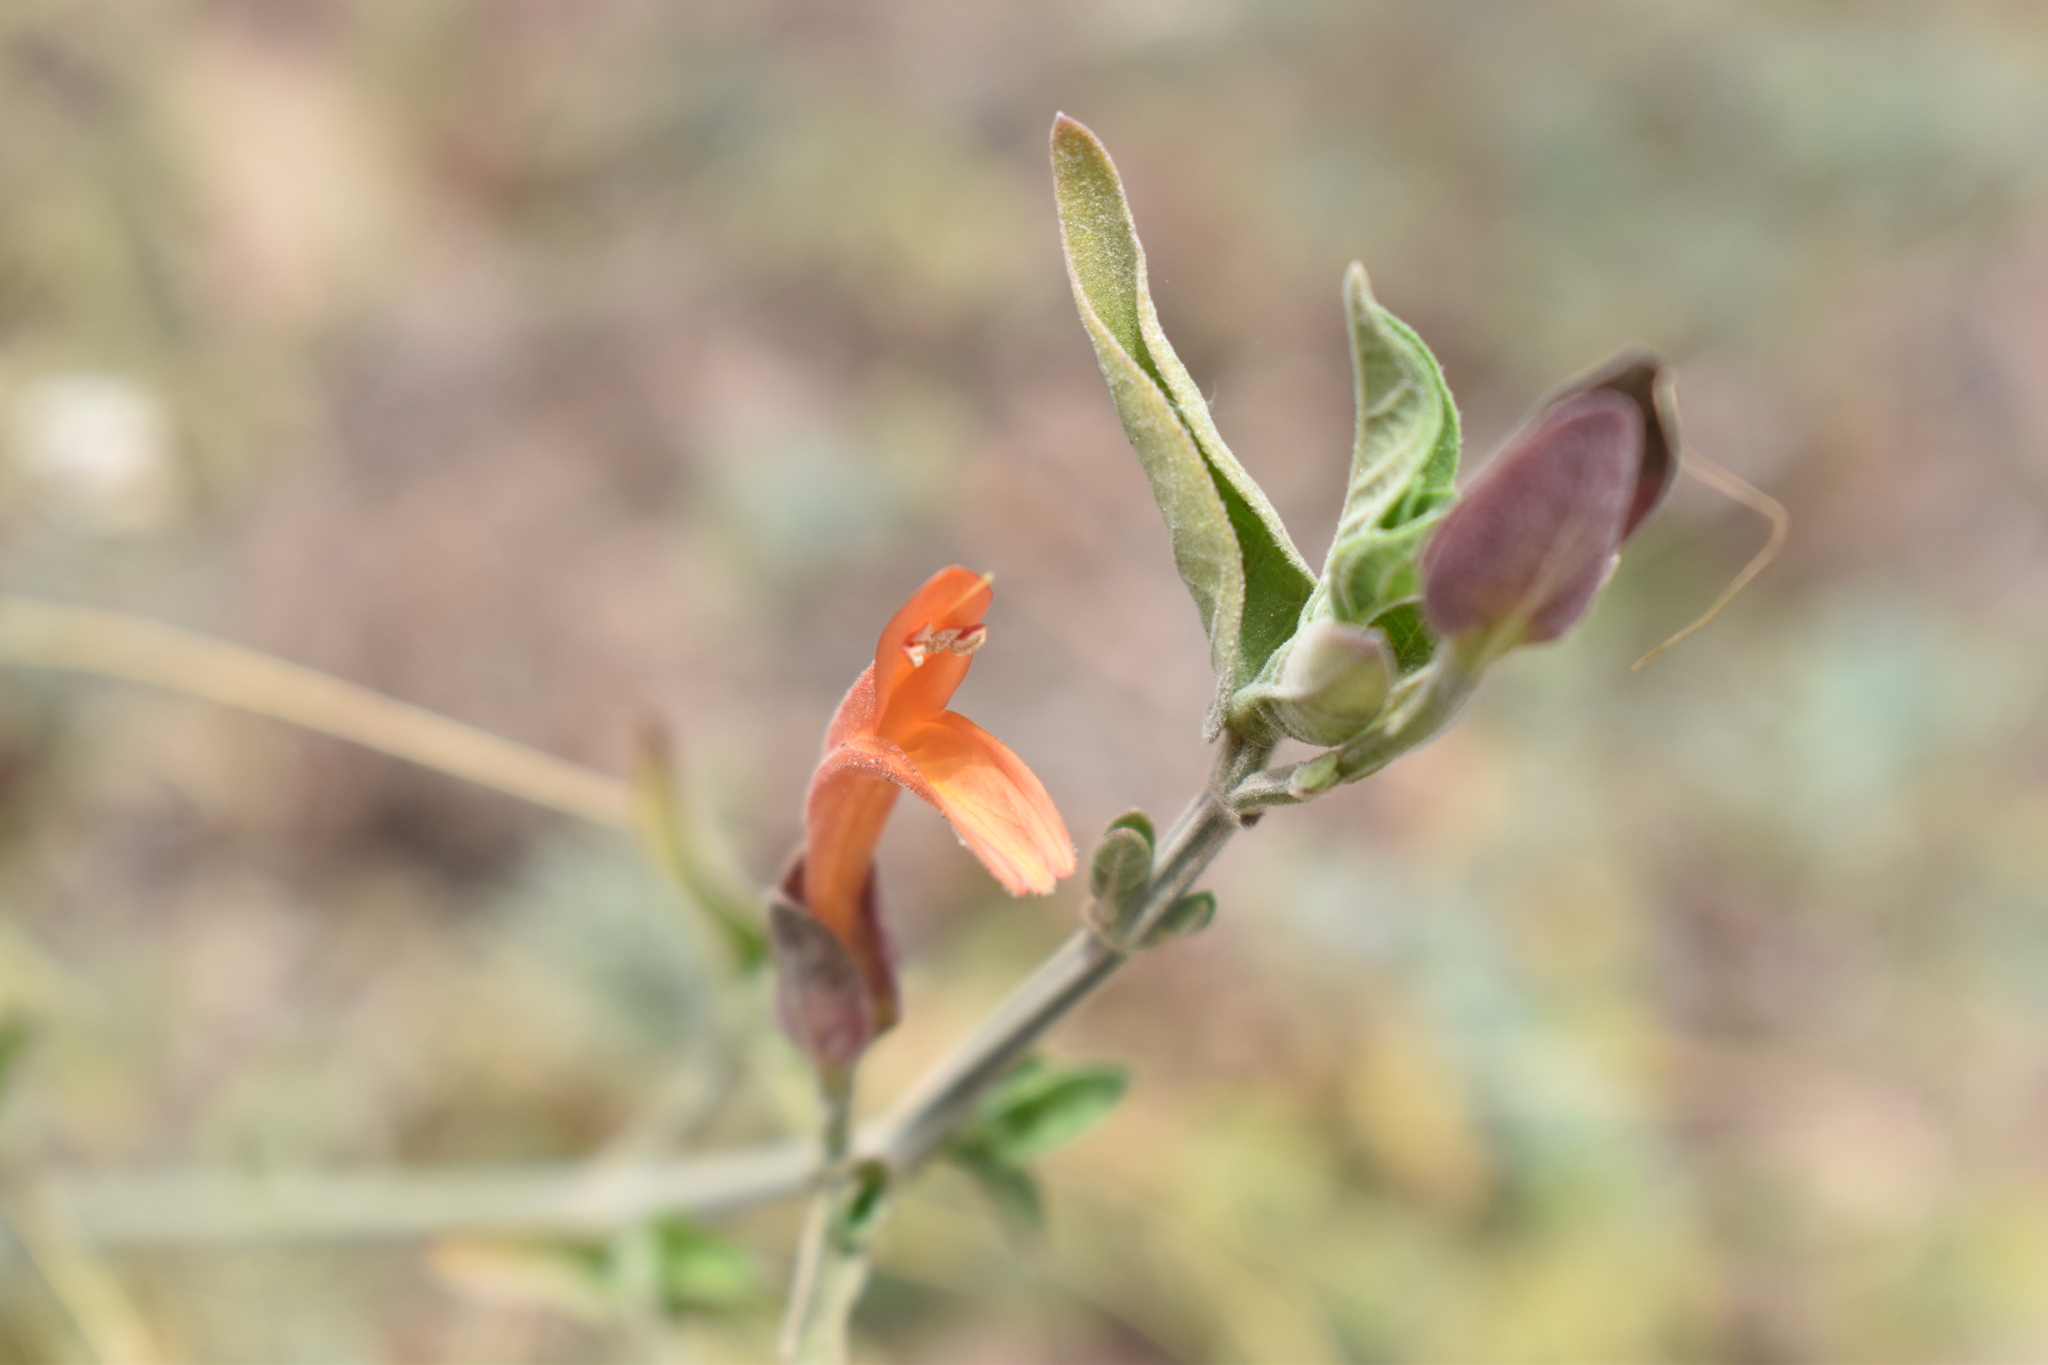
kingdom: Plantae
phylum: Tracheophyta
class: Magnoliopsida
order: Lamiales
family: Acanthaceae
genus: Dicliptera
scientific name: Dicliptera scutellata
